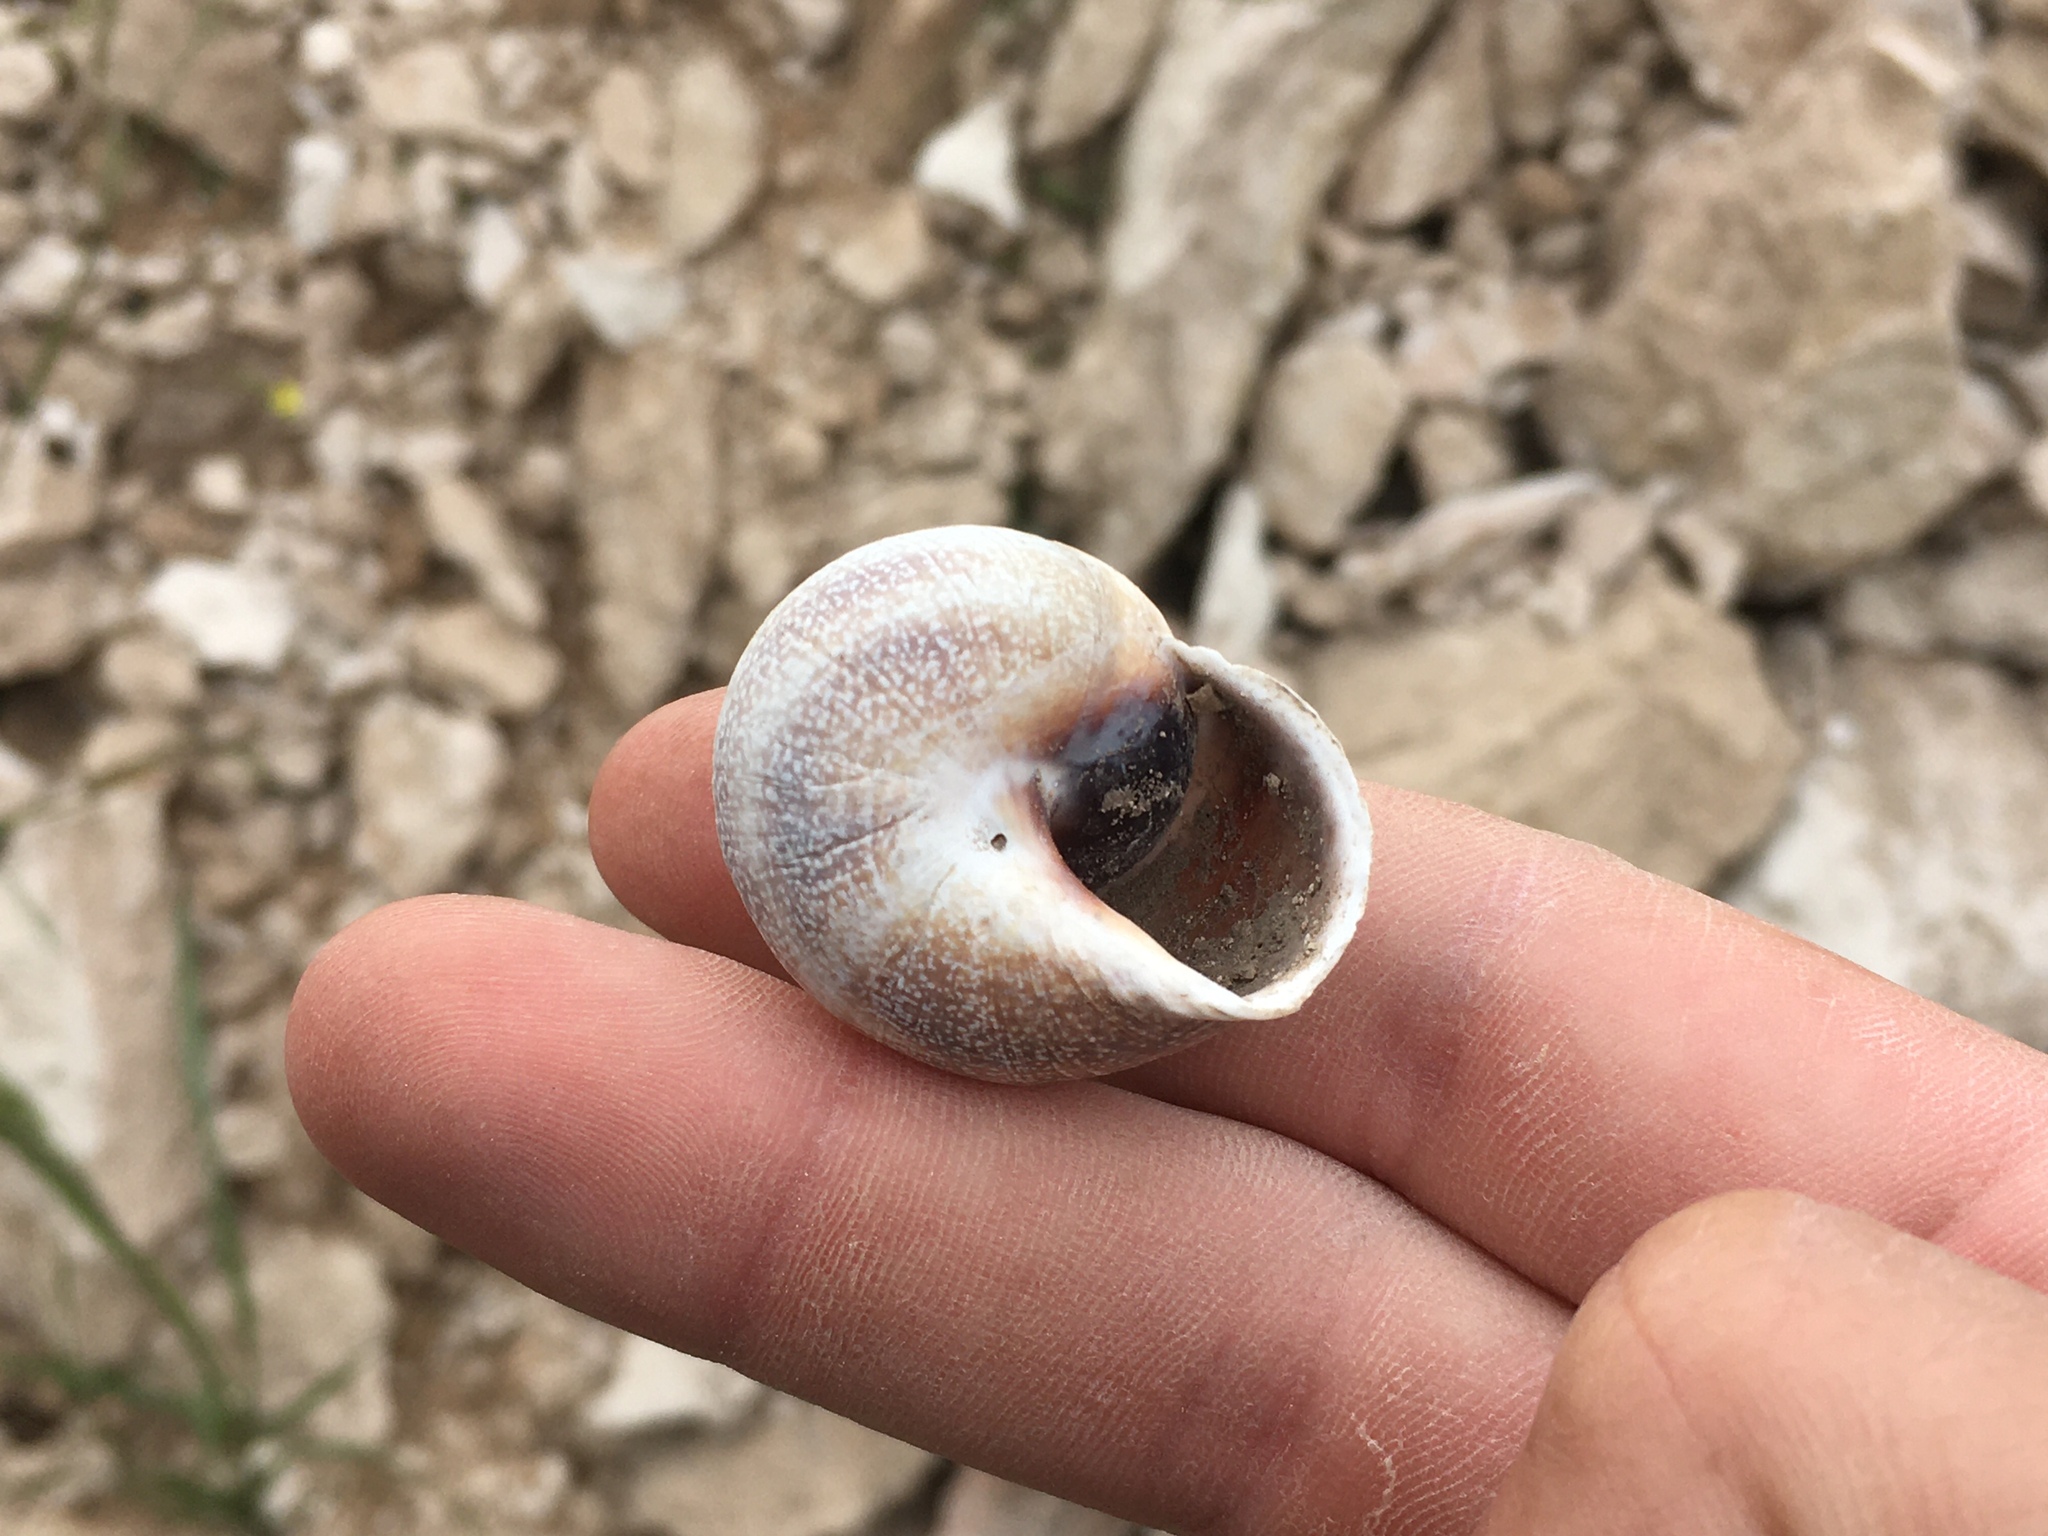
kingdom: Animalia
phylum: Mollusca
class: Gastropoda
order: Stylommatophora
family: Helicidae
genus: Otala
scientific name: Otala punctata
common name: Milk snail
